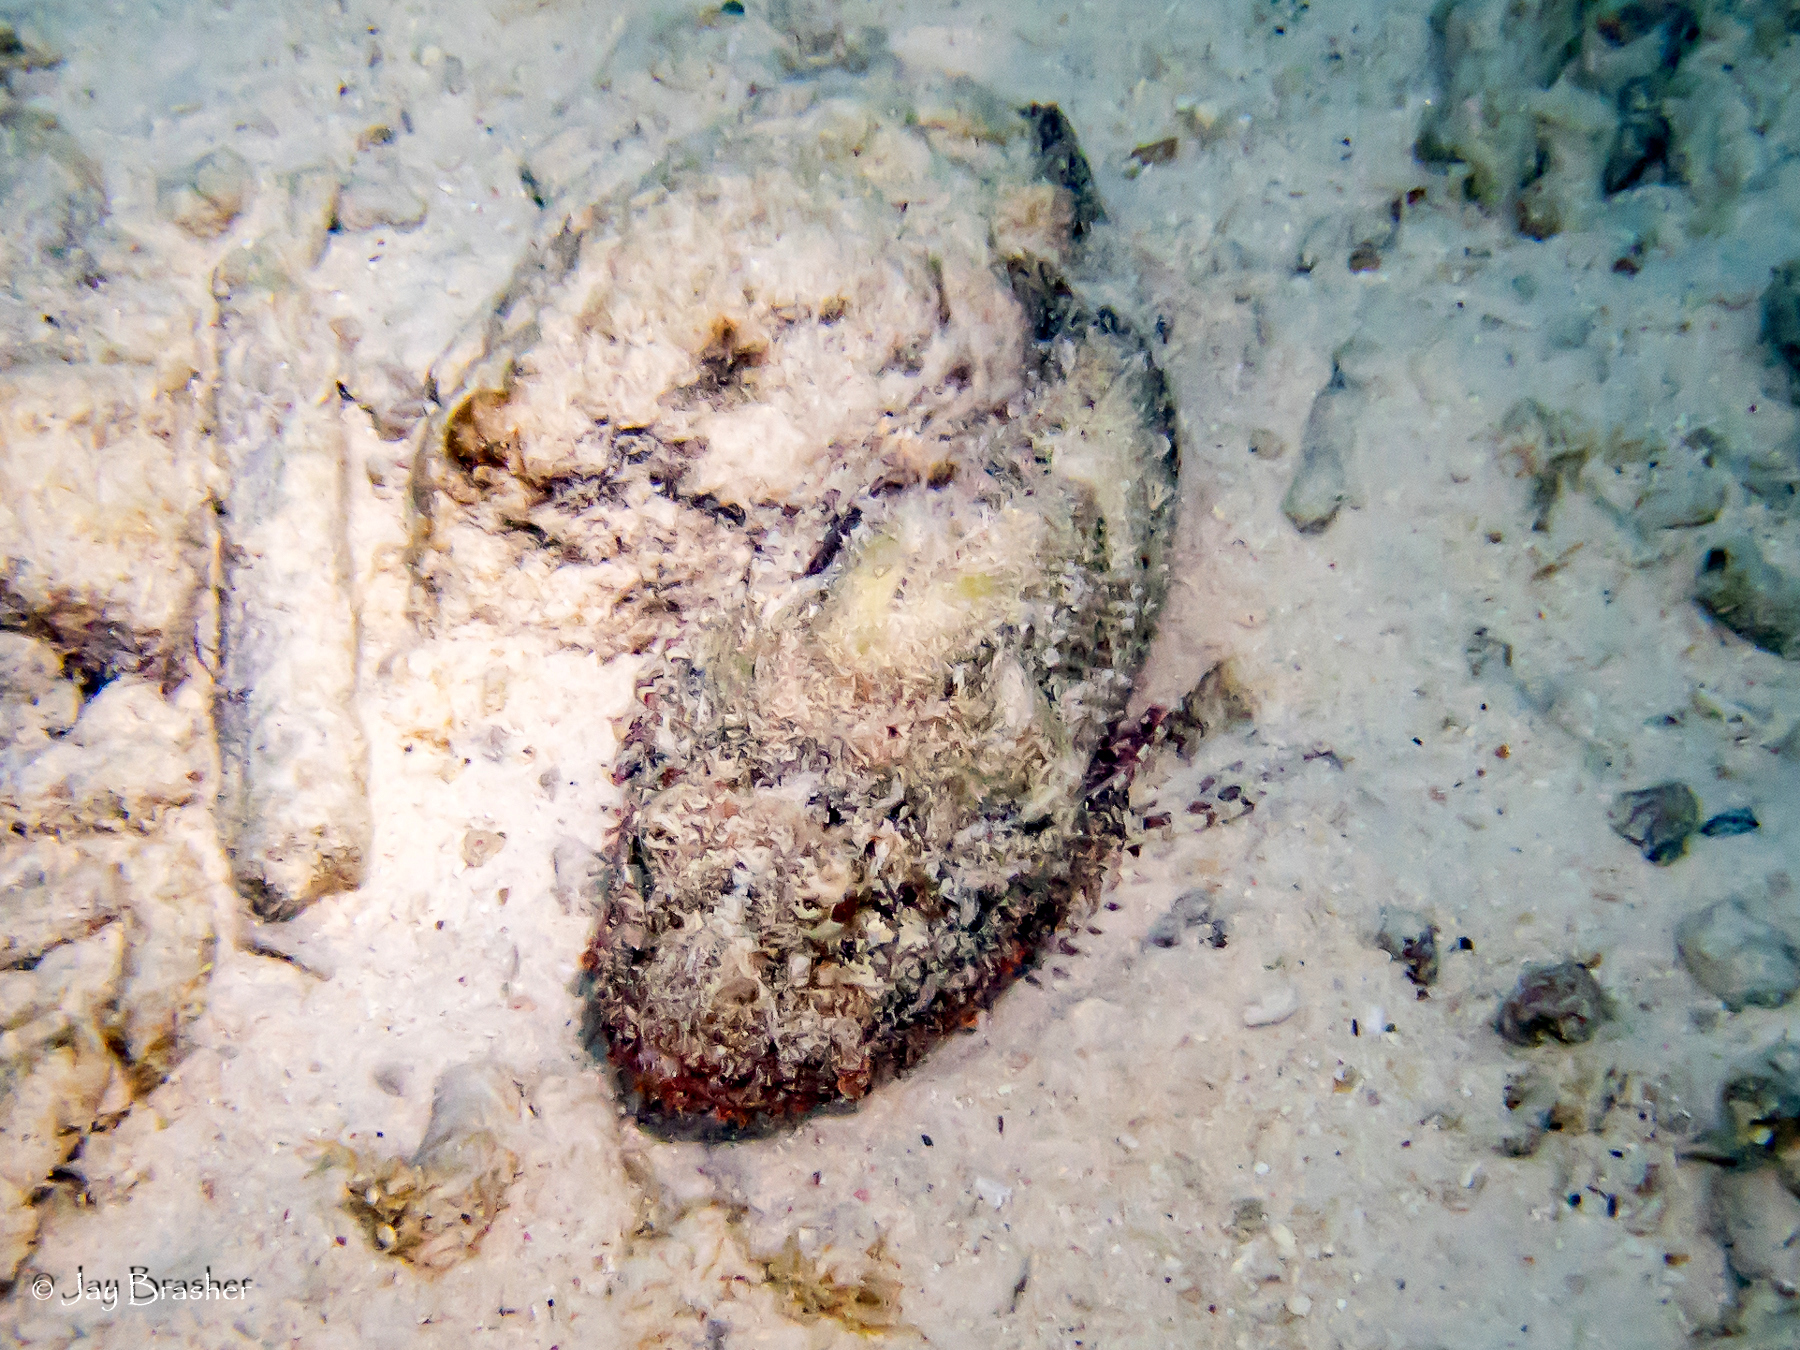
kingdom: Animalia
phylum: Chordata
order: Scorpaeniformes
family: Scorpaenidae
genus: Scorpaena
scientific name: Scorpaena plumieri
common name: Spotted scorpionfish
